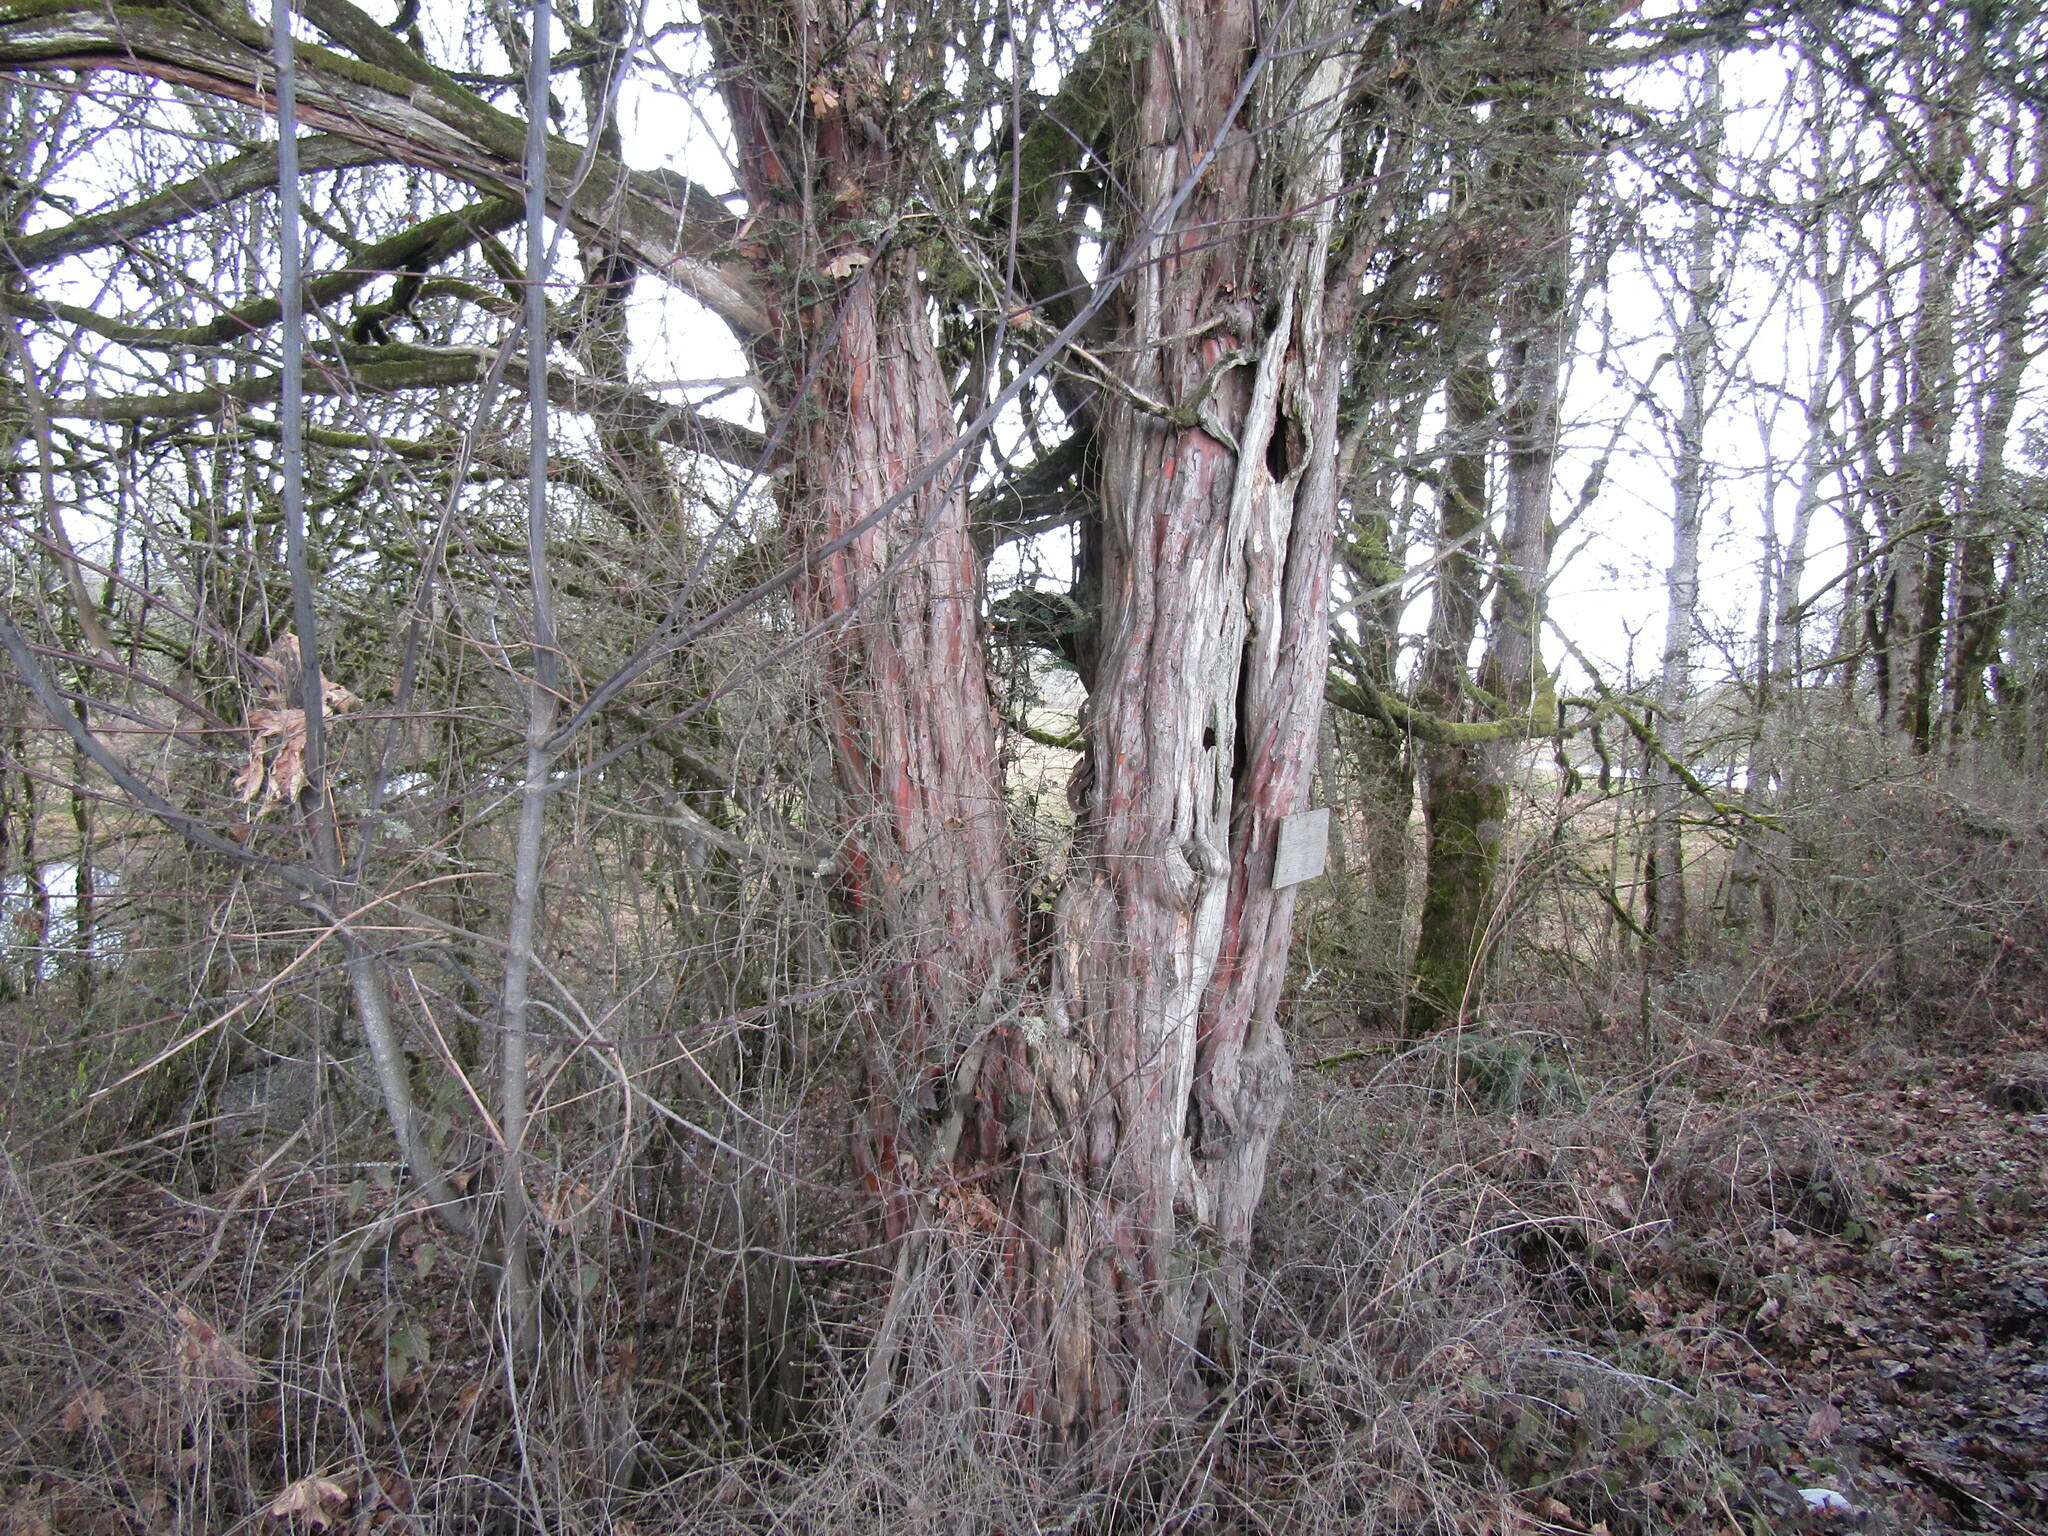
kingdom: Plantae
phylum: Tracheophyta
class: Pinopsida
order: Pinales
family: Taxaceae
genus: Taxus
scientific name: Taxus brevifolia
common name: Pacific yew
